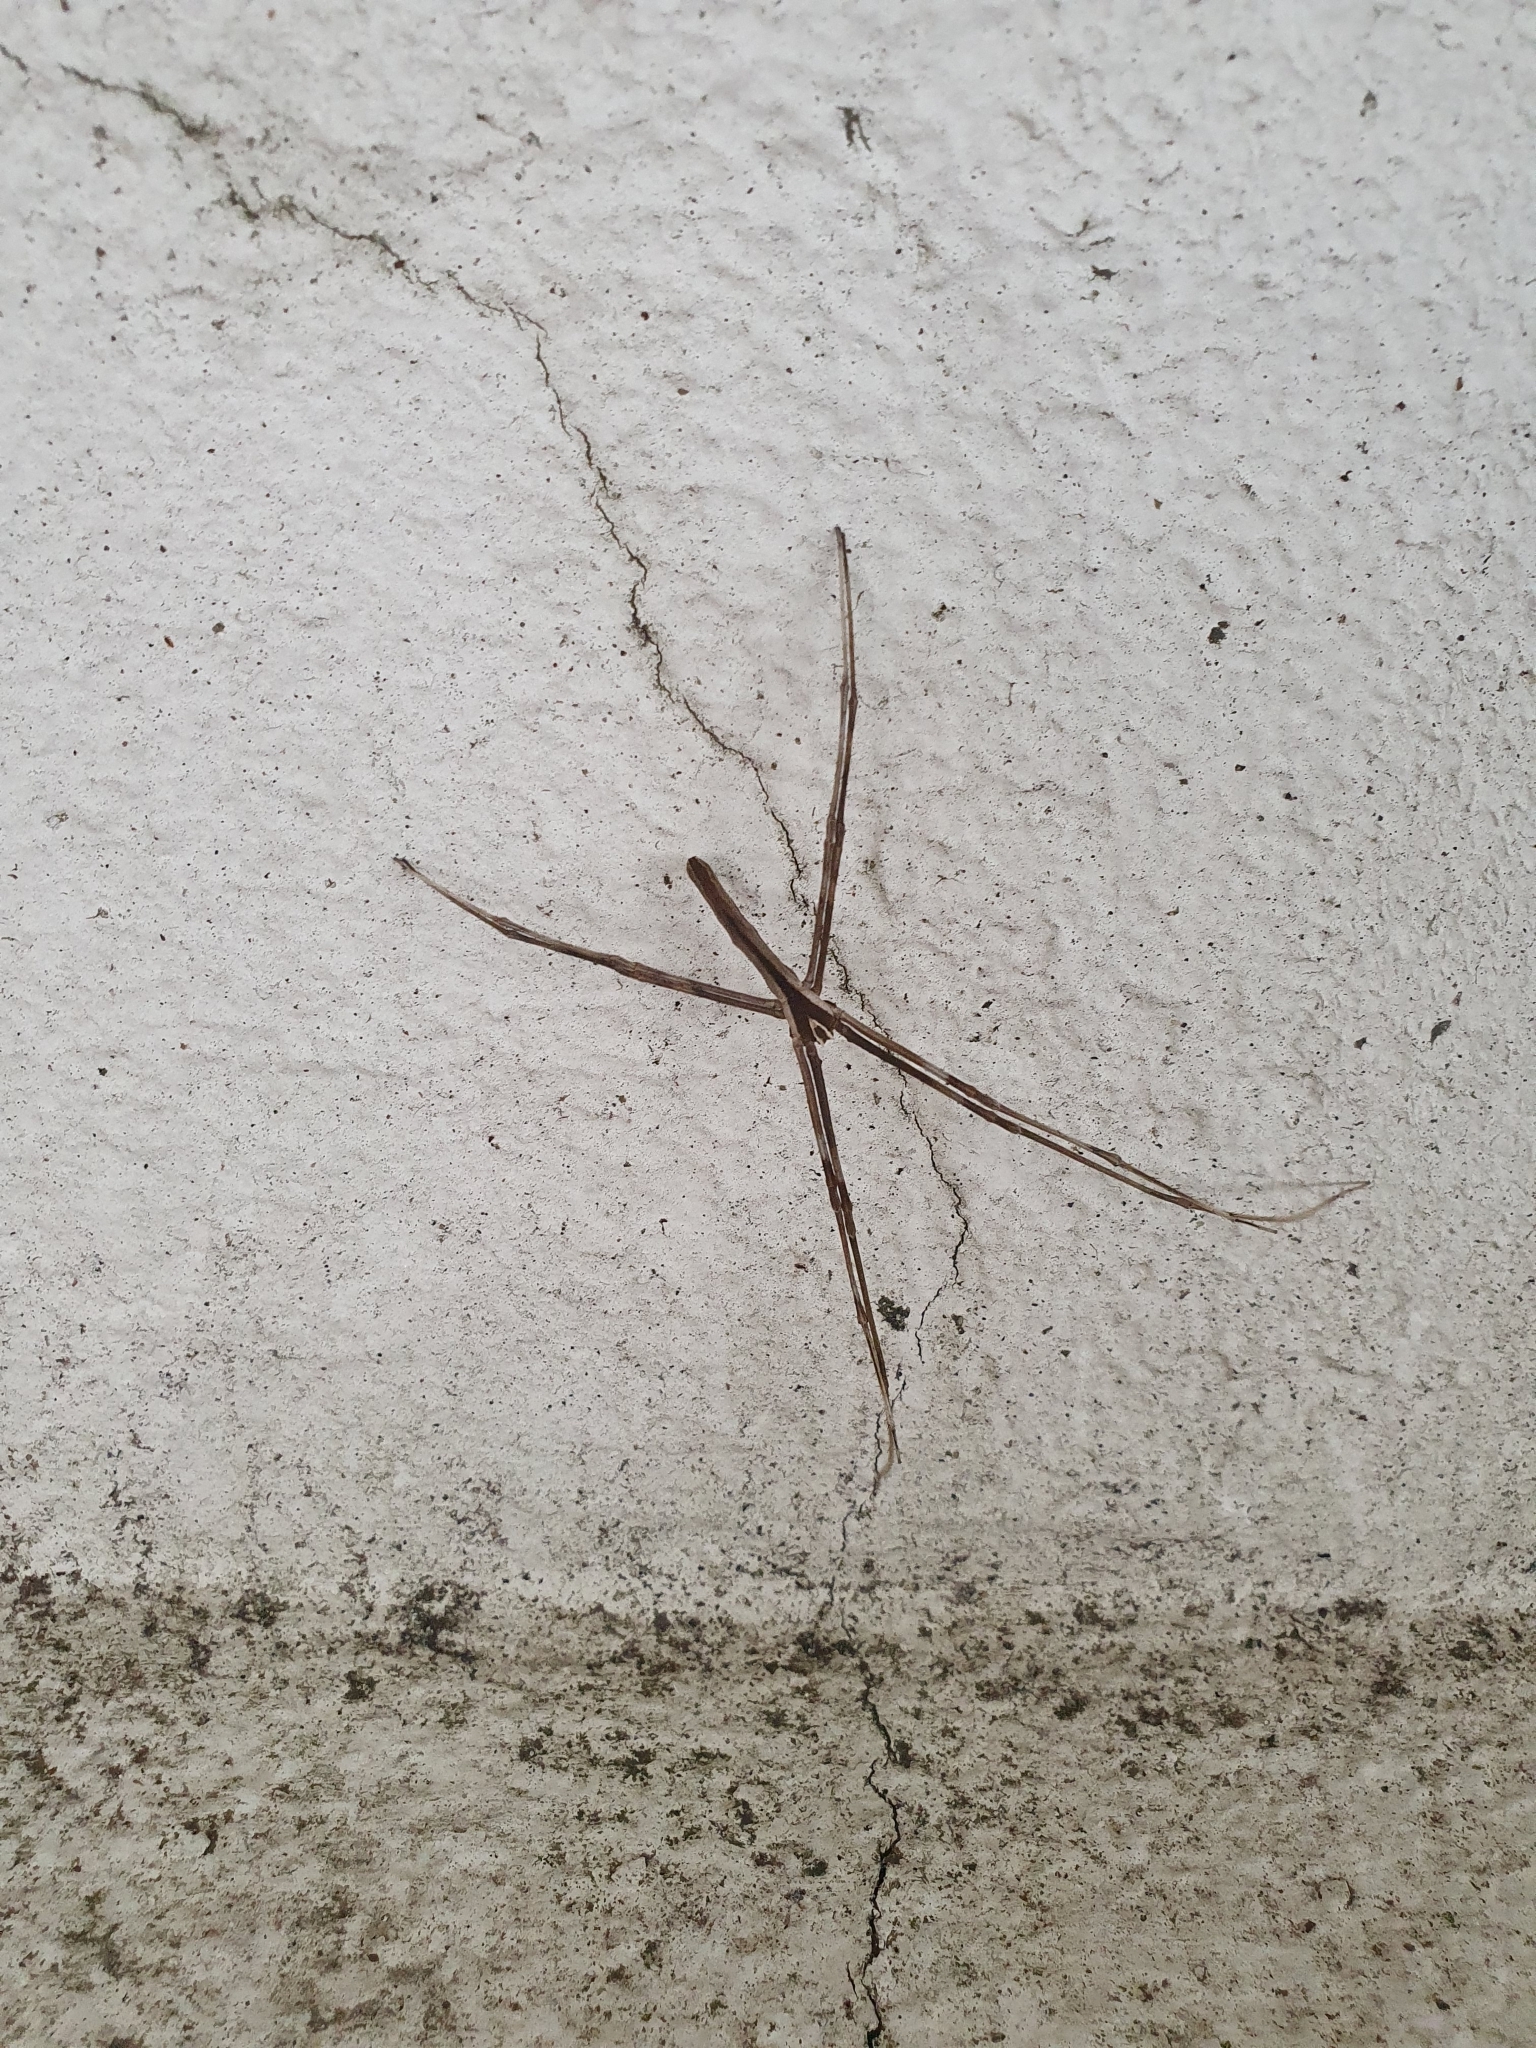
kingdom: Animalia
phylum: Arthropoda
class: Arachnida
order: Araneae
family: Deinopidae
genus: Deinopis
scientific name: Deinopis subrufa
